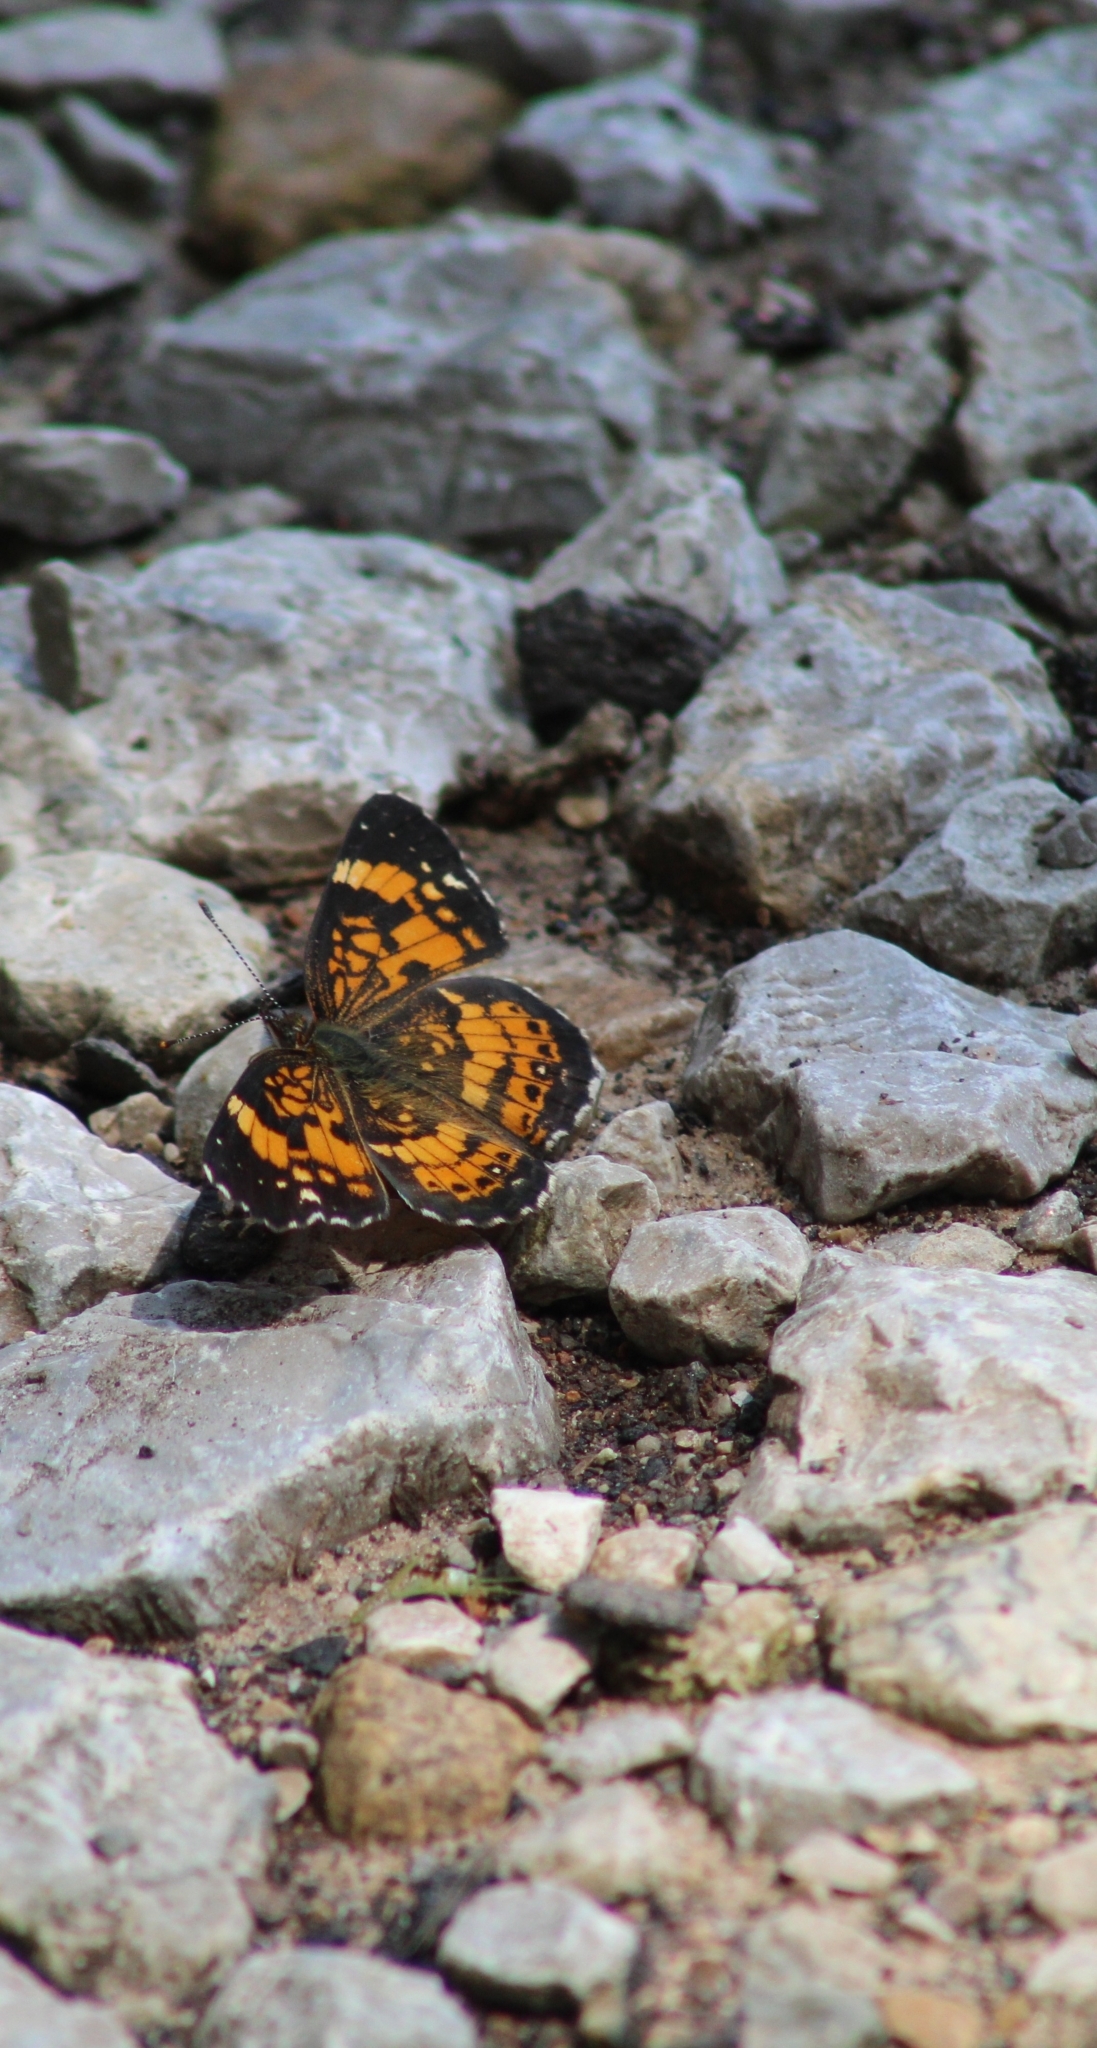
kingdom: Animalia
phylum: Arthropoda
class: Insecta
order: Lepidoptera
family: Nymphalidae
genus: Chlosyne
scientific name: Chlosyne nycteis
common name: Silvery checkerspot
